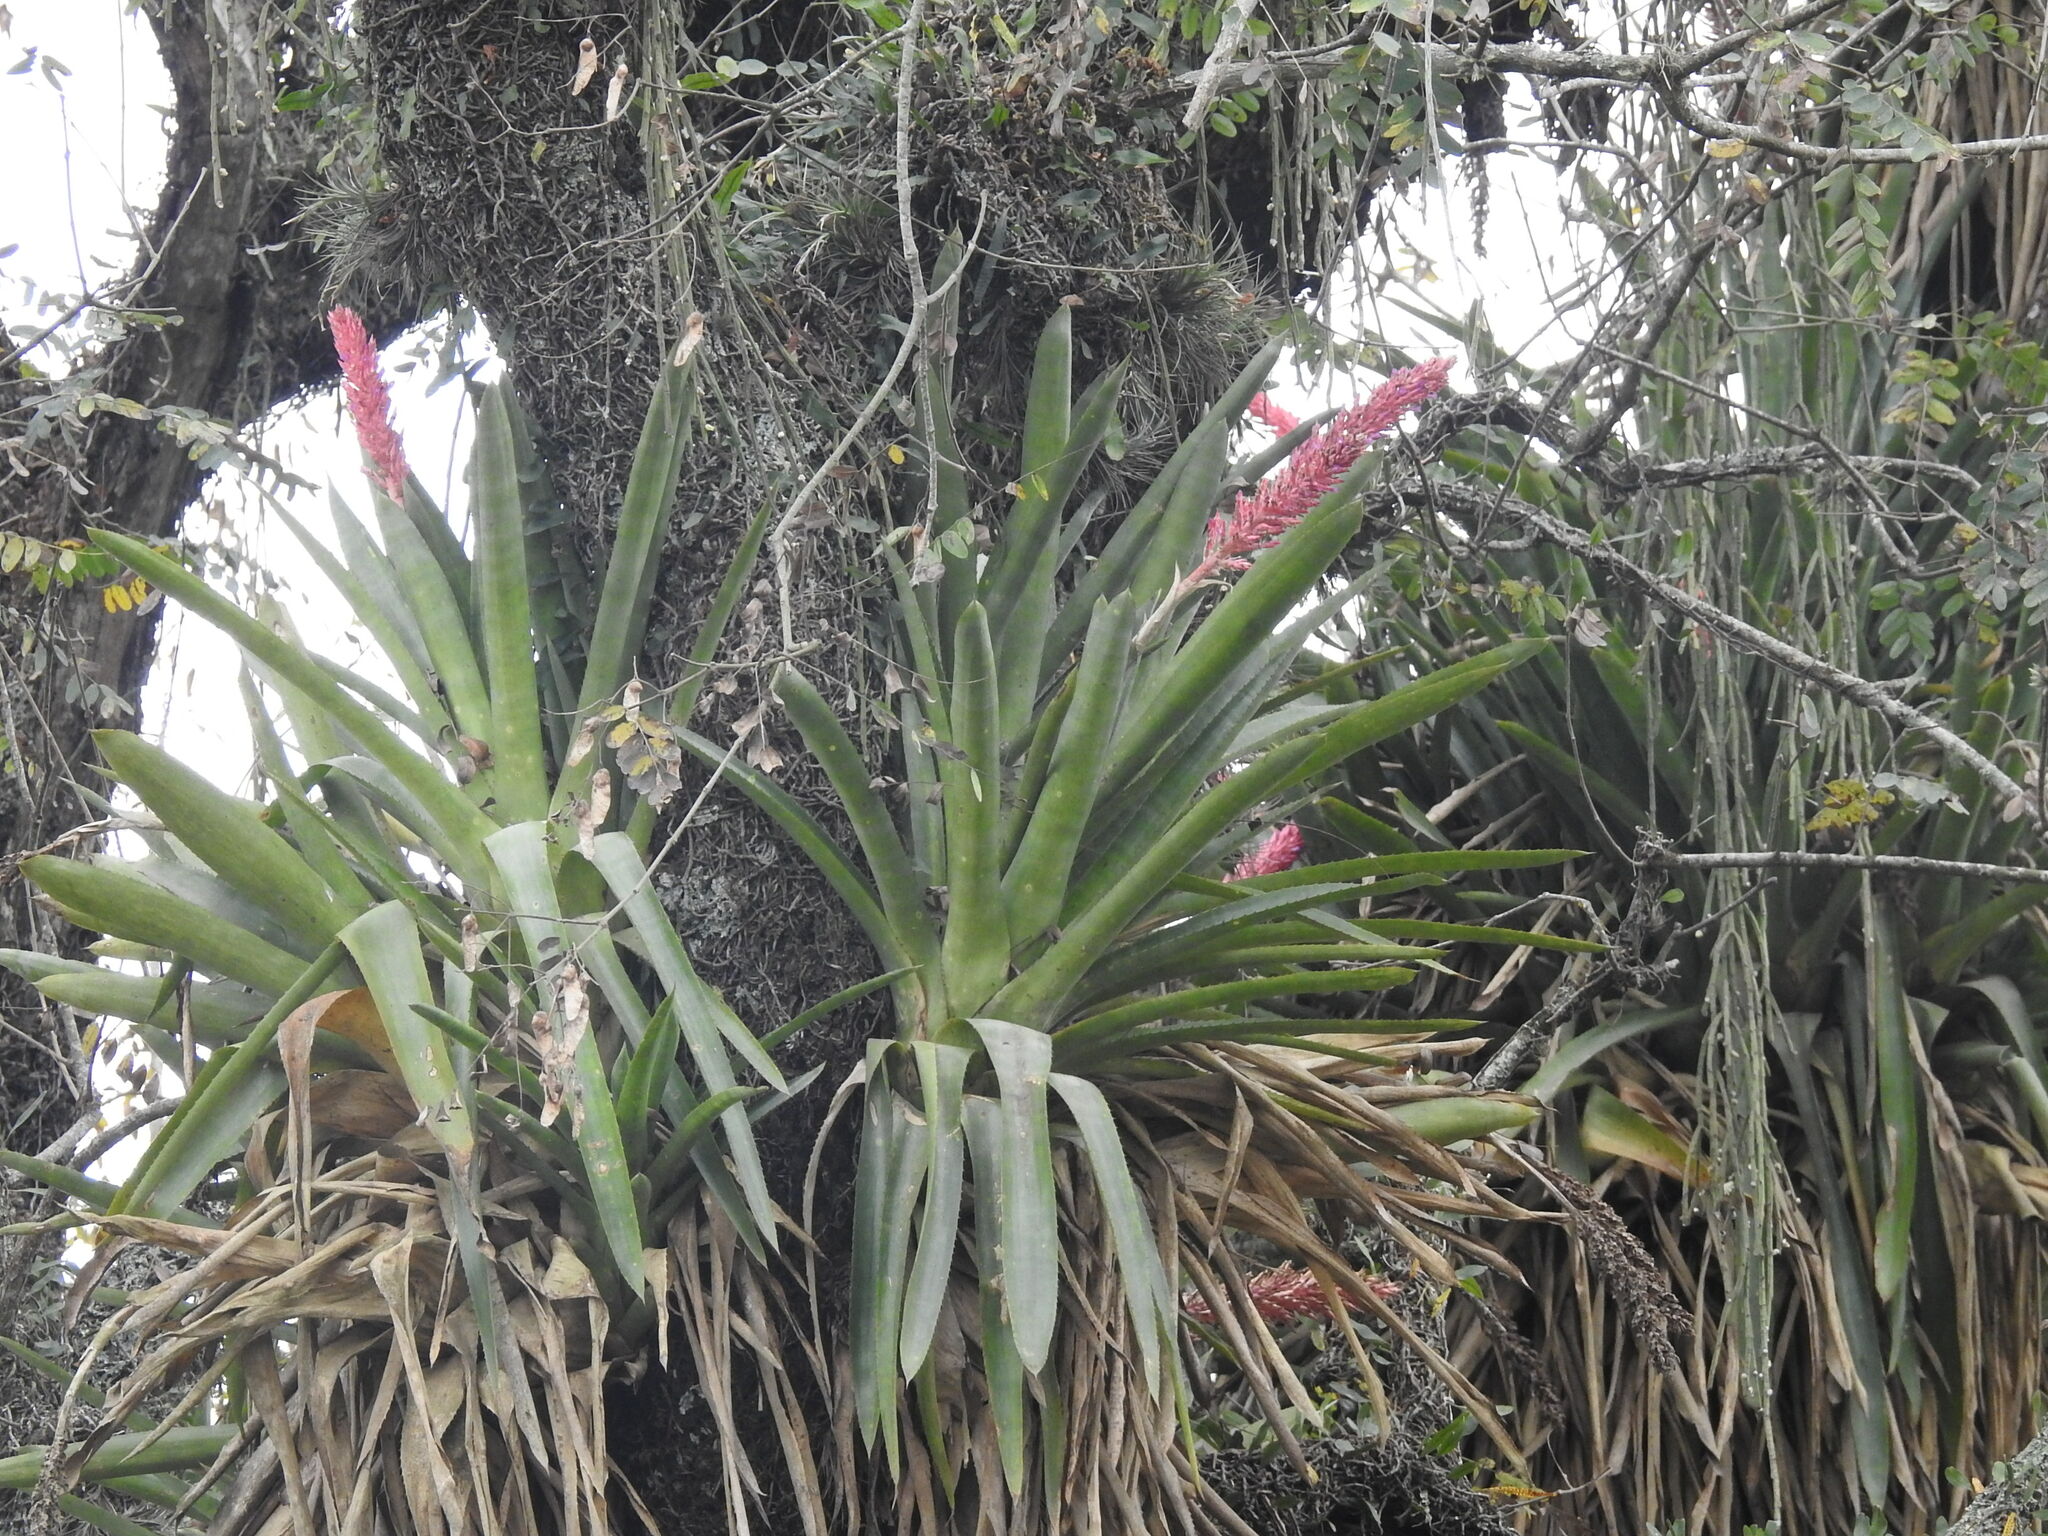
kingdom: Plantae
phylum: Tracheophyta
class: Liliopsida
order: Poales
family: Bromeliaceae
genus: Aechmea
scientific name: Aechmea distichantha
